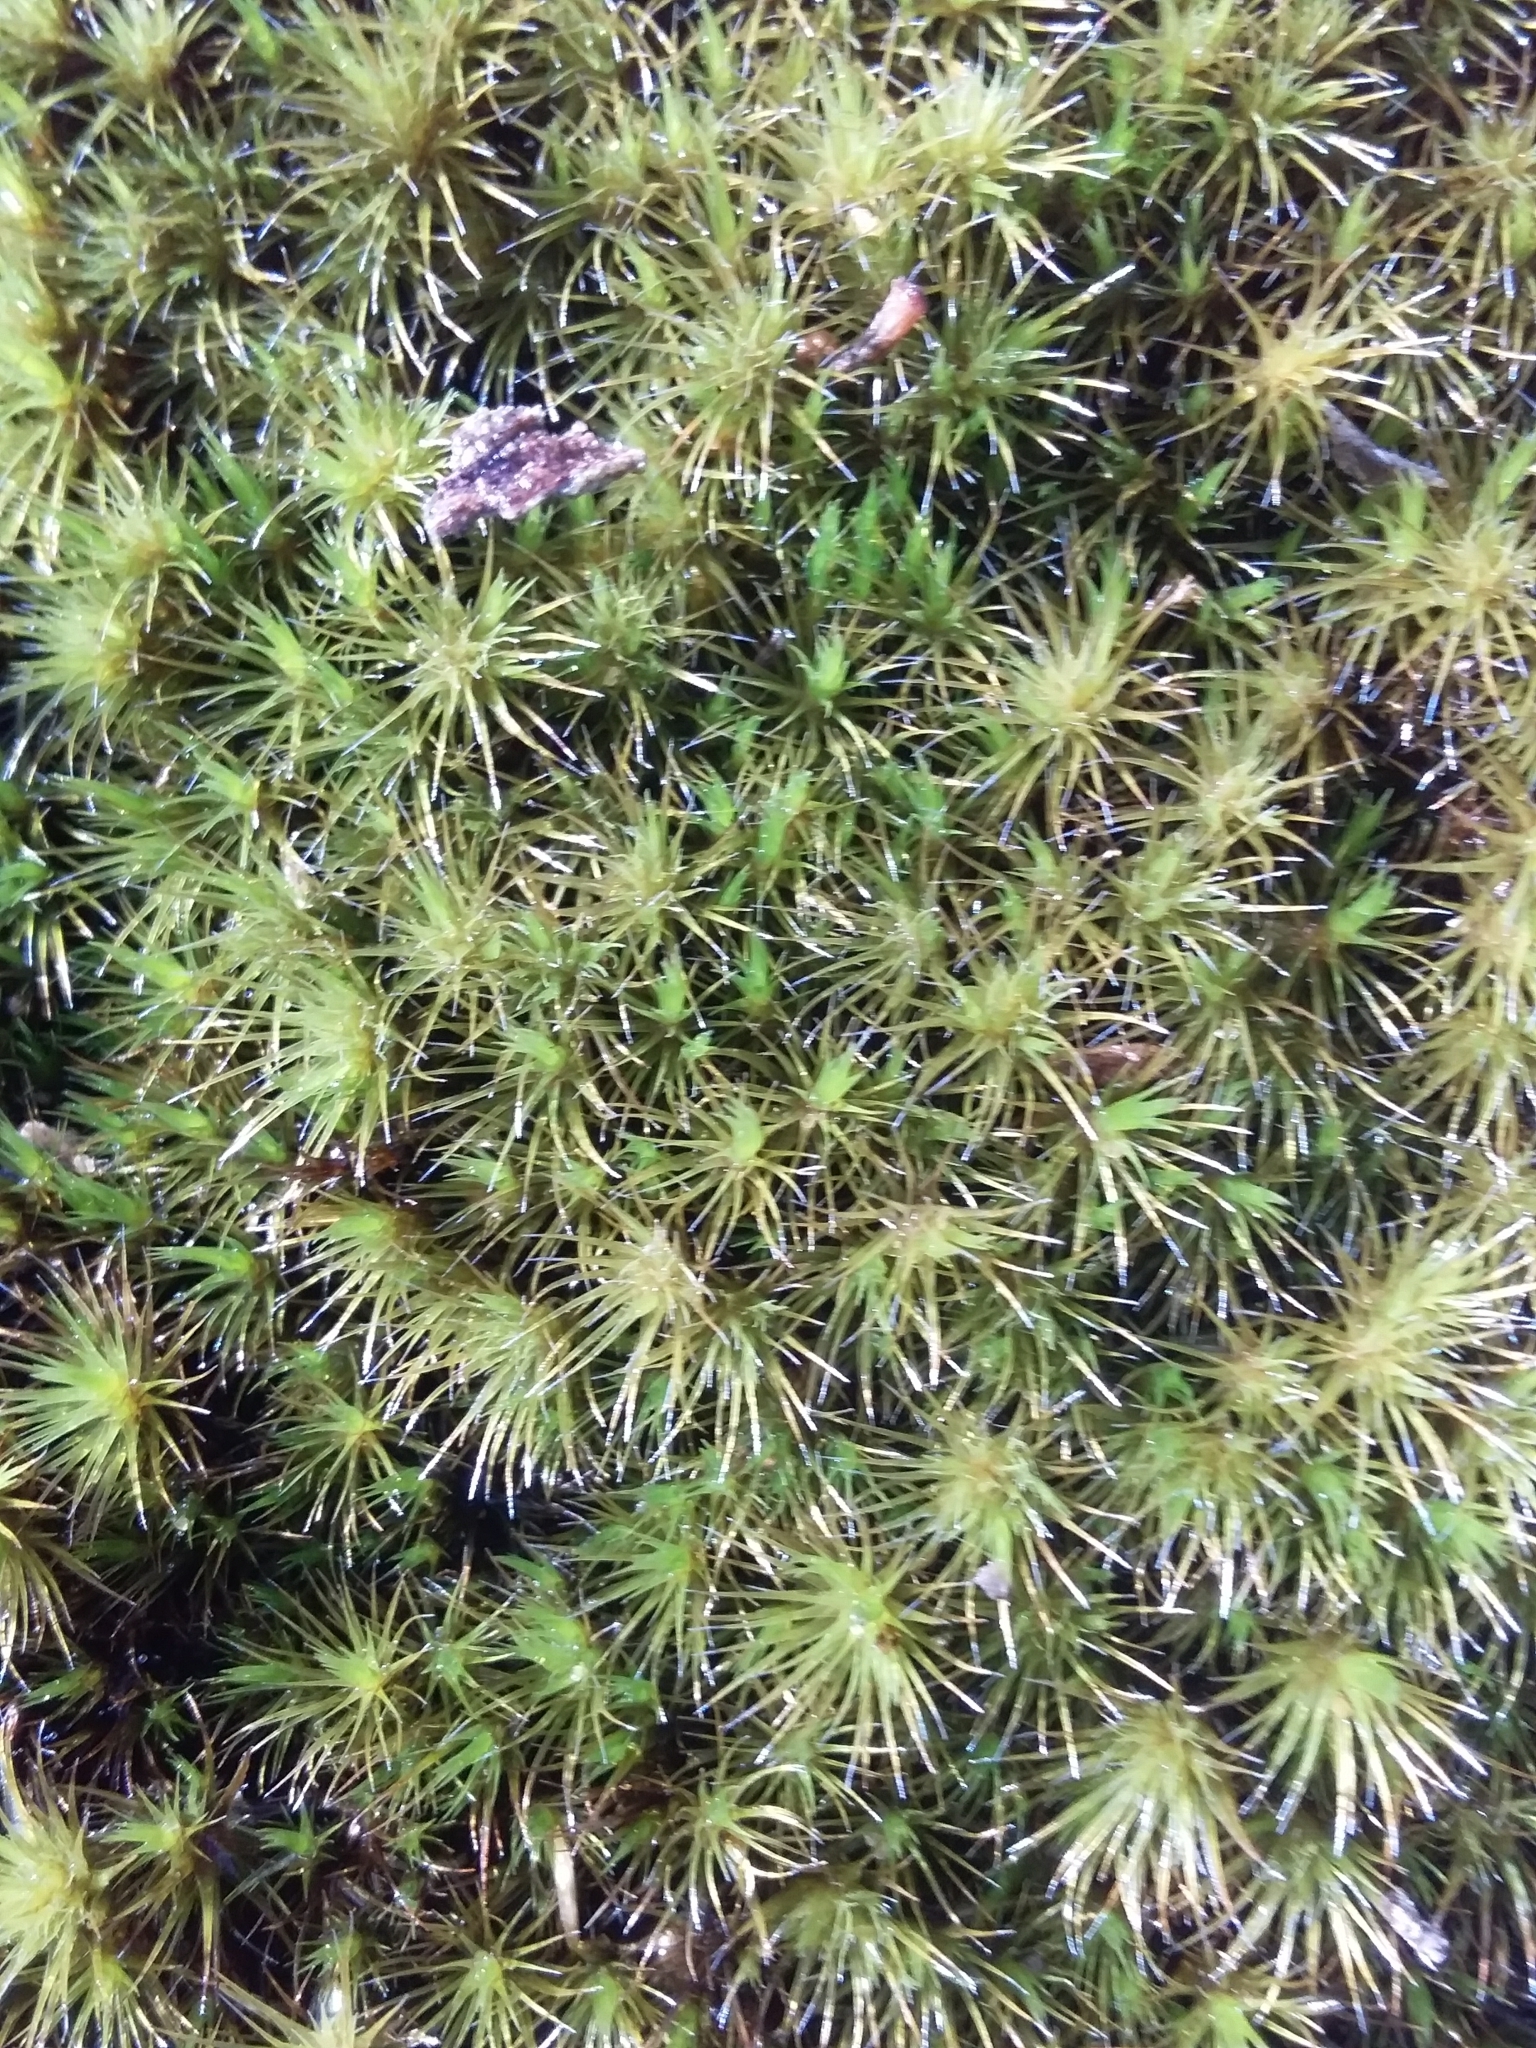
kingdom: Plantae
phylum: Bryophyta
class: Bryopsida
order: Dicranales
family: Leucobryaceae
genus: Campylopus
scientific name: Campylopus introflexus
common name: Heath star moss
